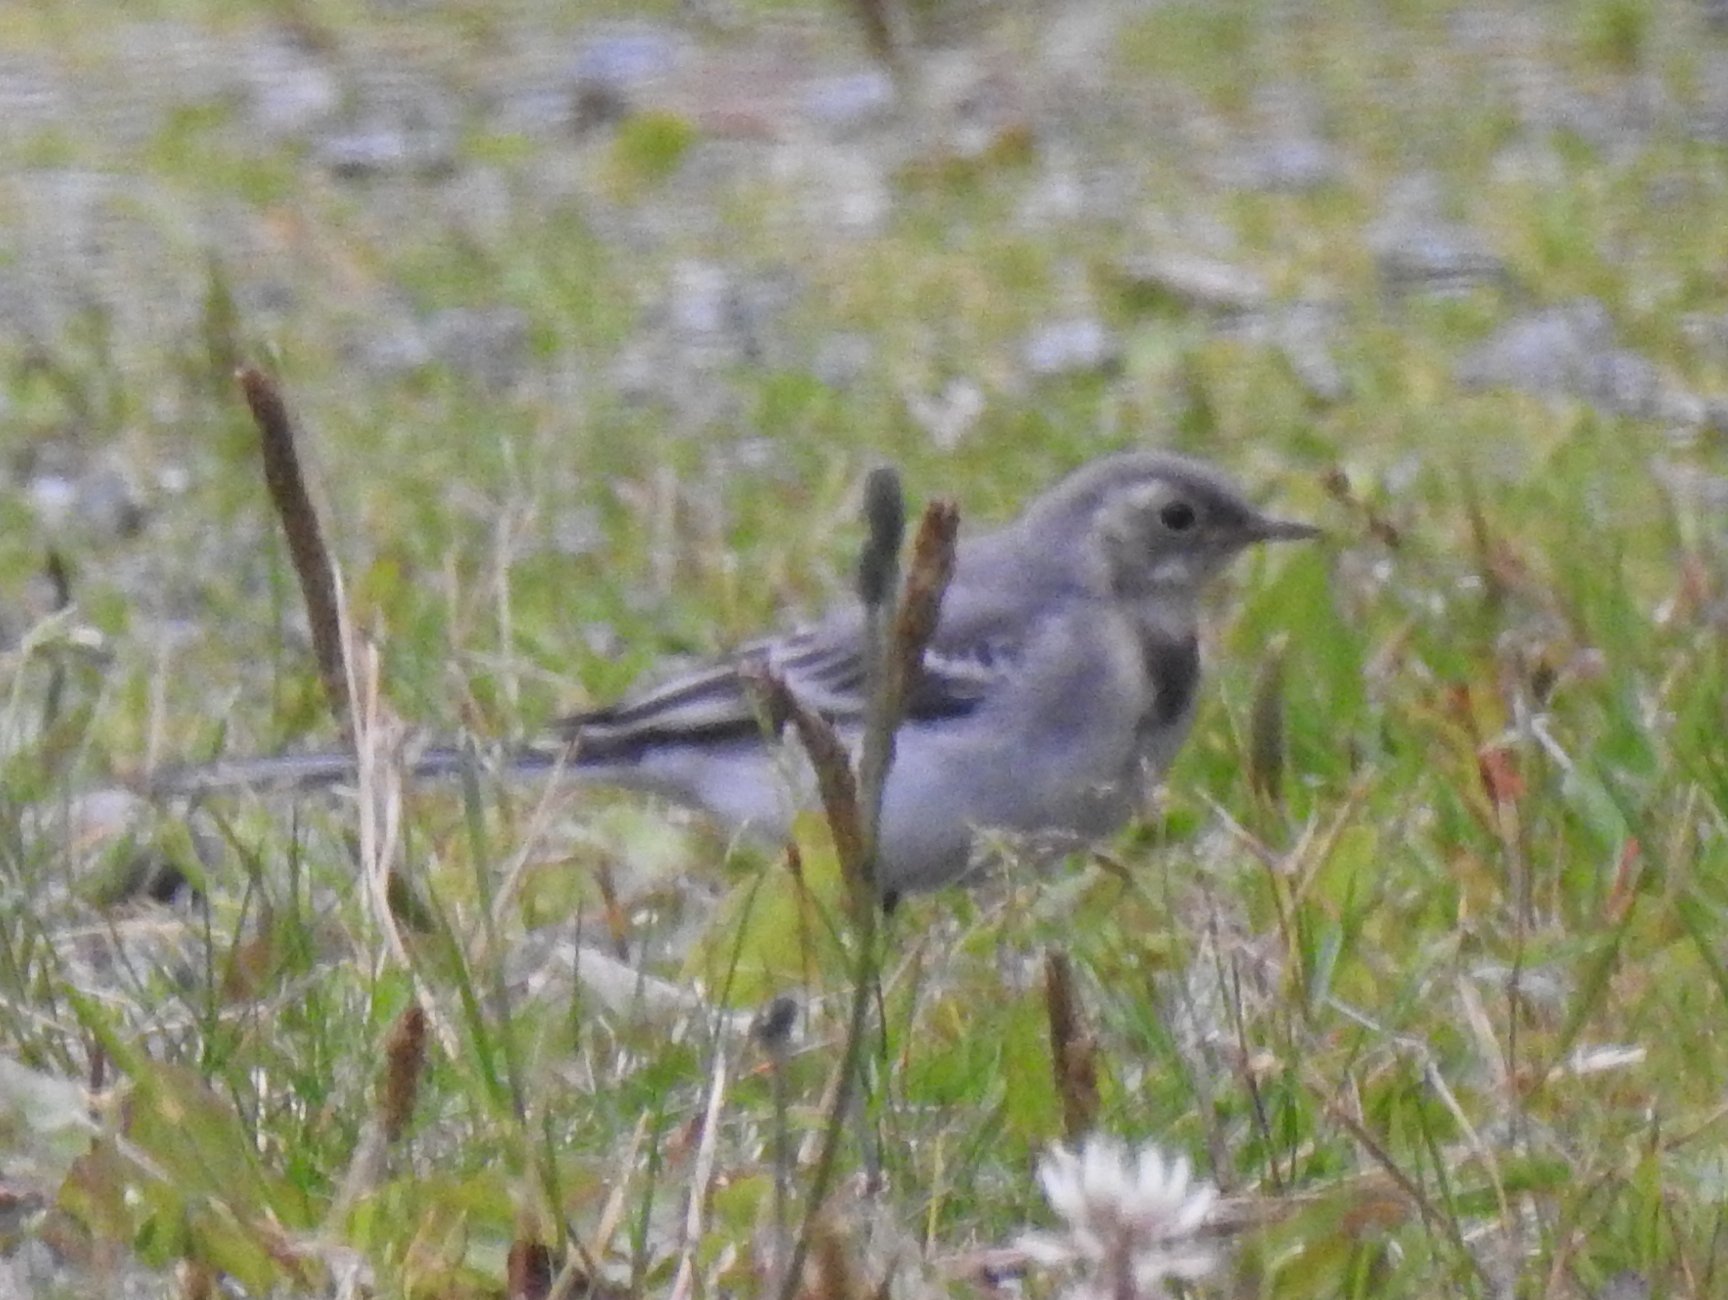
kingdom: Animalia
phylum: Chordata
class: Aves
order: Passeriformes
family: Motacillidae
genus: Motacilla
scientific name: Motacilla alba
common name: White wagtail
